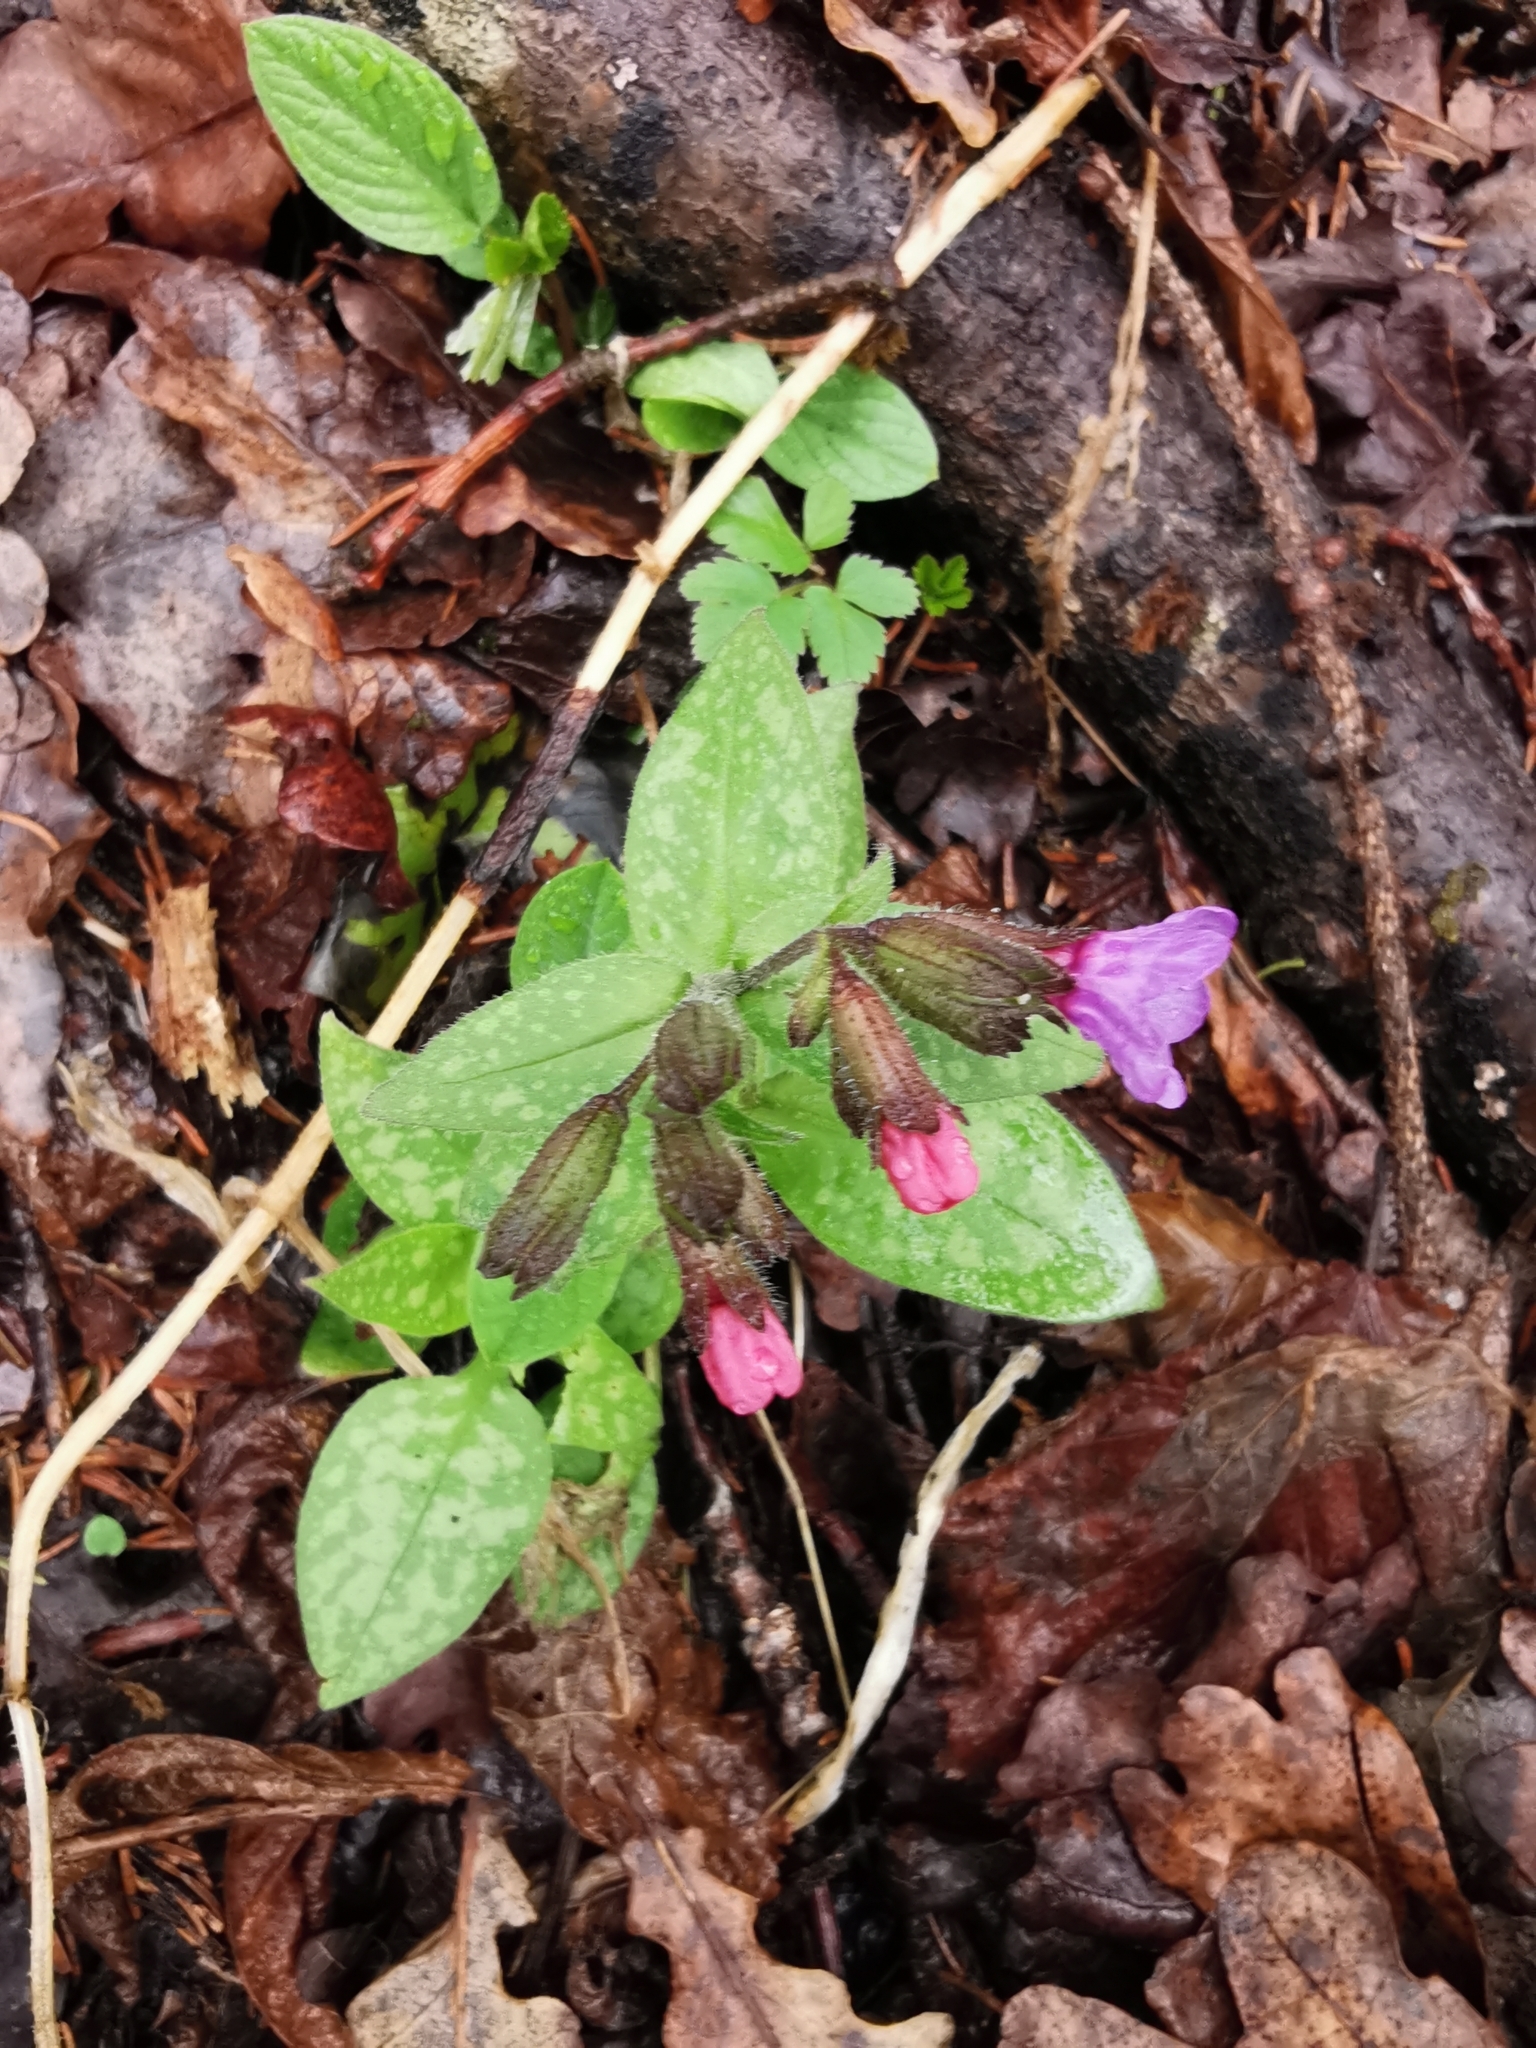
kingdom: Plantae
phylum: Tracheophyta
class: Magnoliopsida
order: Boraginales
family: Boraginaceae
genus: Pulmonaria
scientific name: Pulmonaria officinalis
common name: Lungwort
